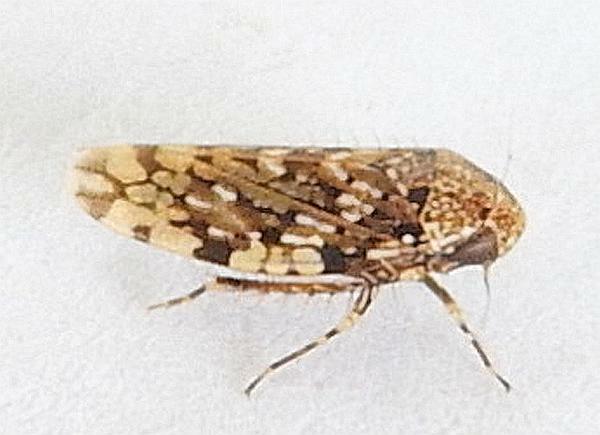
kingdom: Animalia
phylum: Arthropoda
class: Insecta
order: Hemiptera
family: Cicadellidae
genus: Xestocephalus
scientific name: Xestocephalus tessellatus
